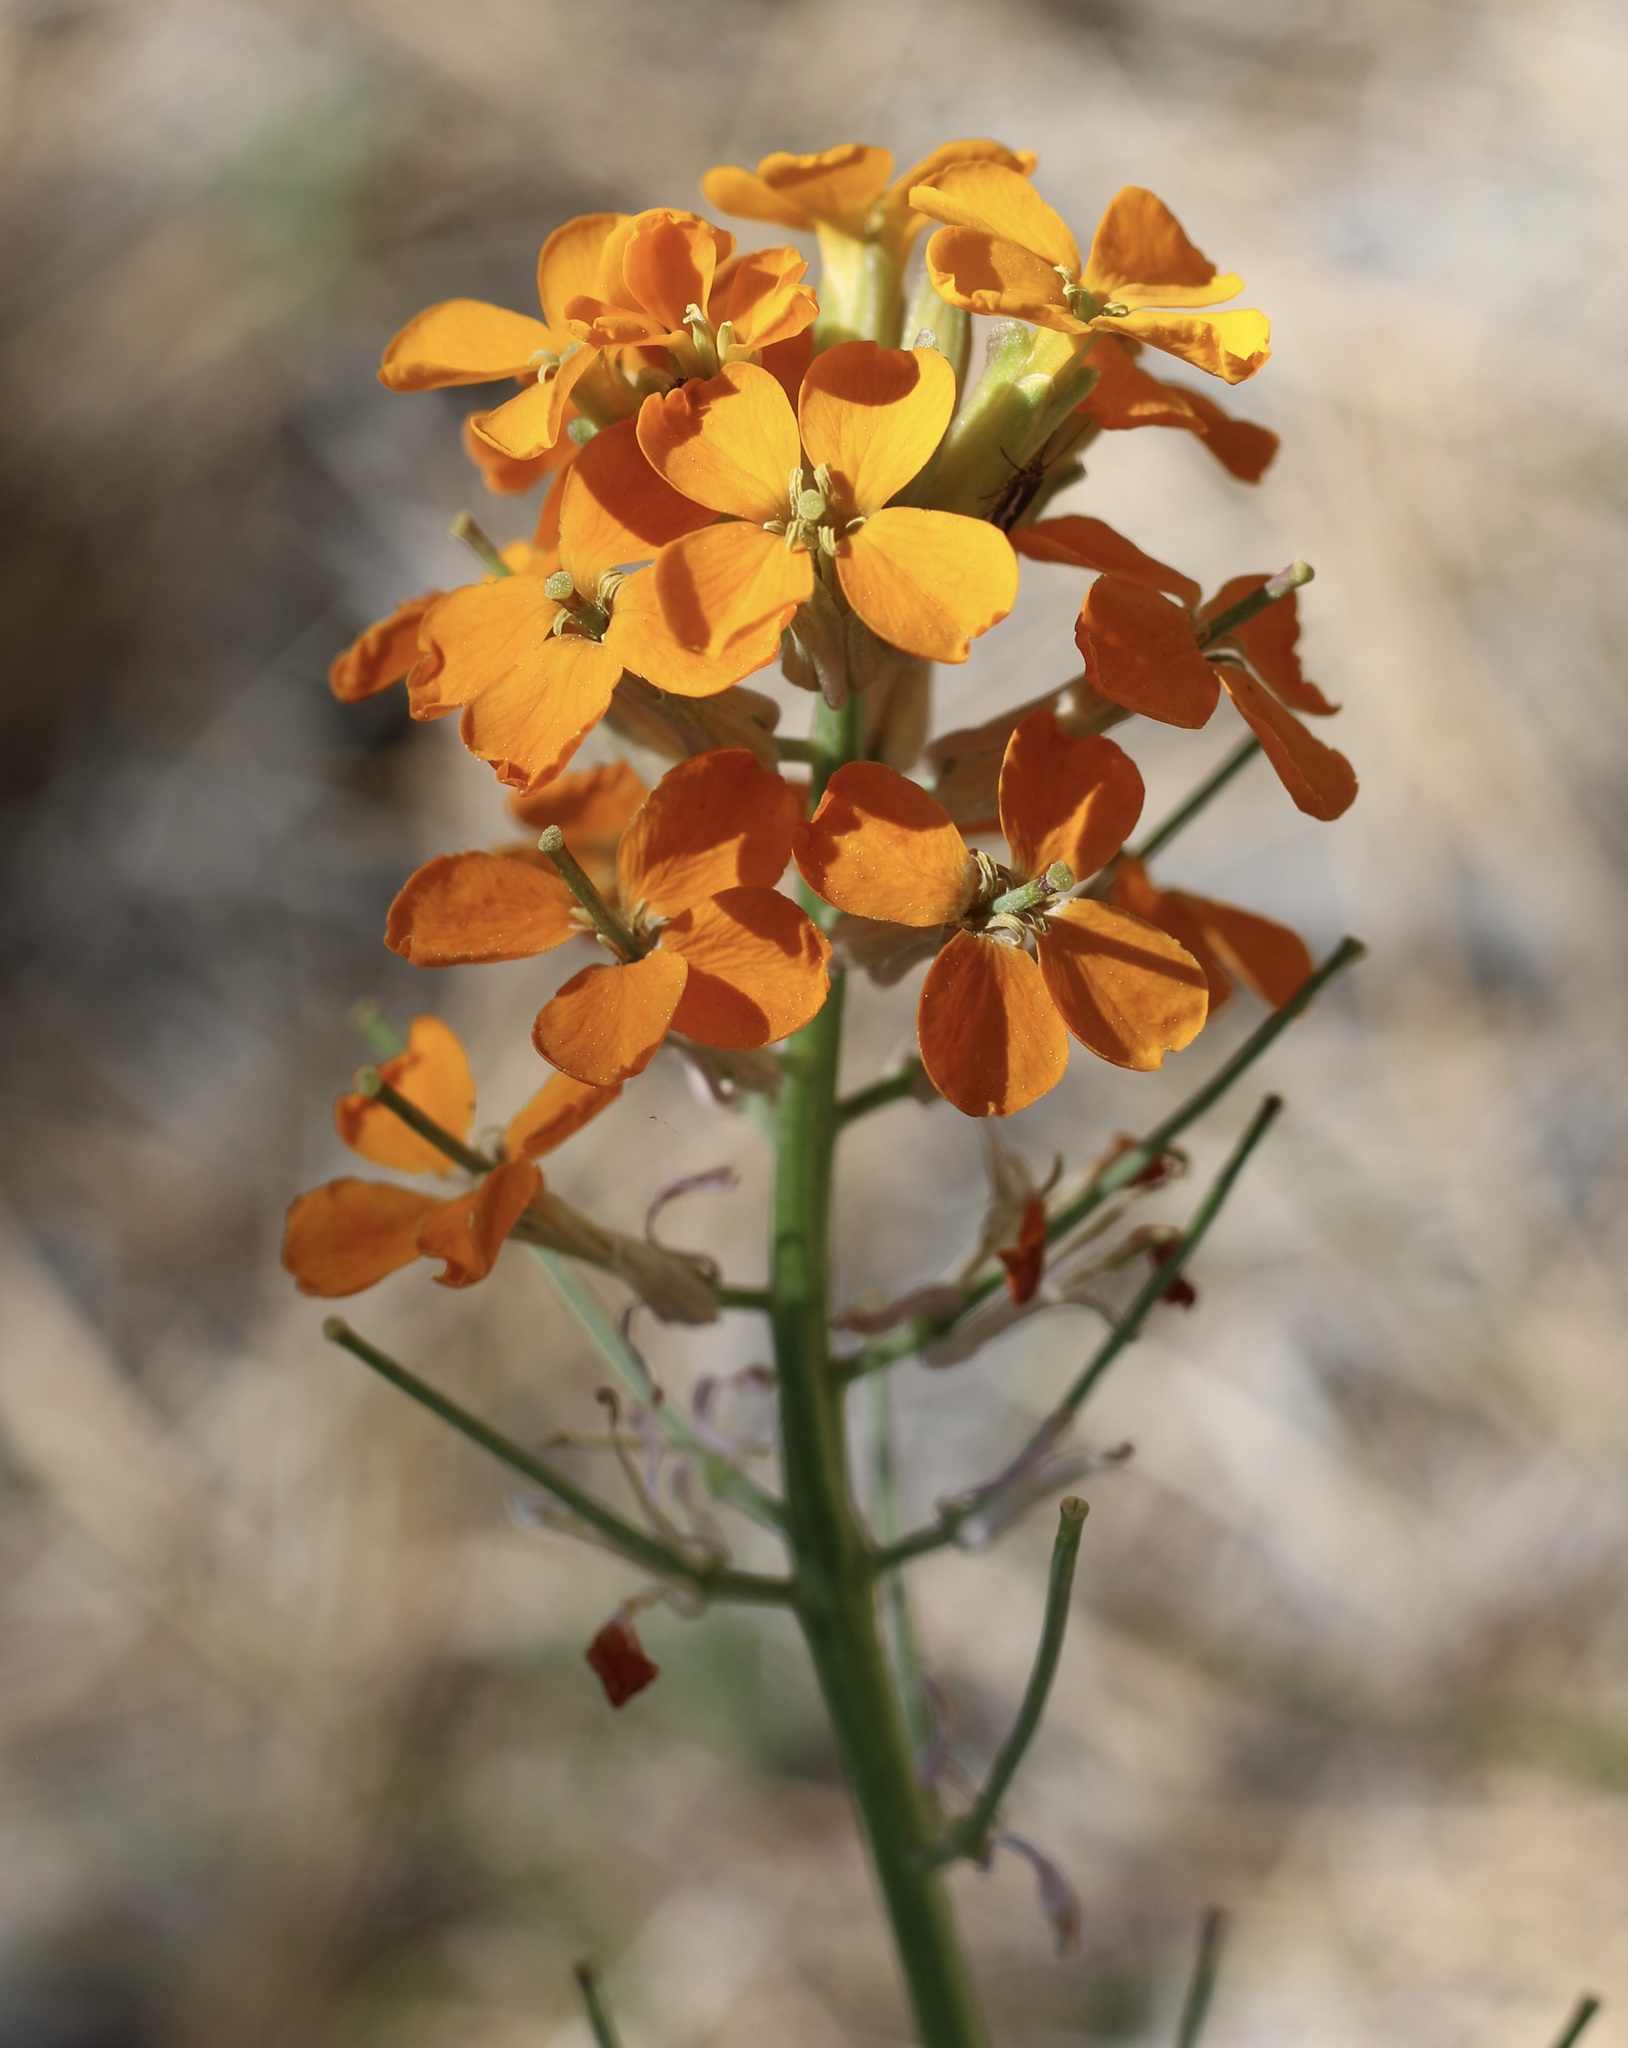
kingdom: Plantae
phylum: Tracheophyta
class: Magnoliopsida
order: Brassicales
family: Brassicaceae
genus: Erysimum
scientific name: Erysimum capitatum
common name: Western wallflower
